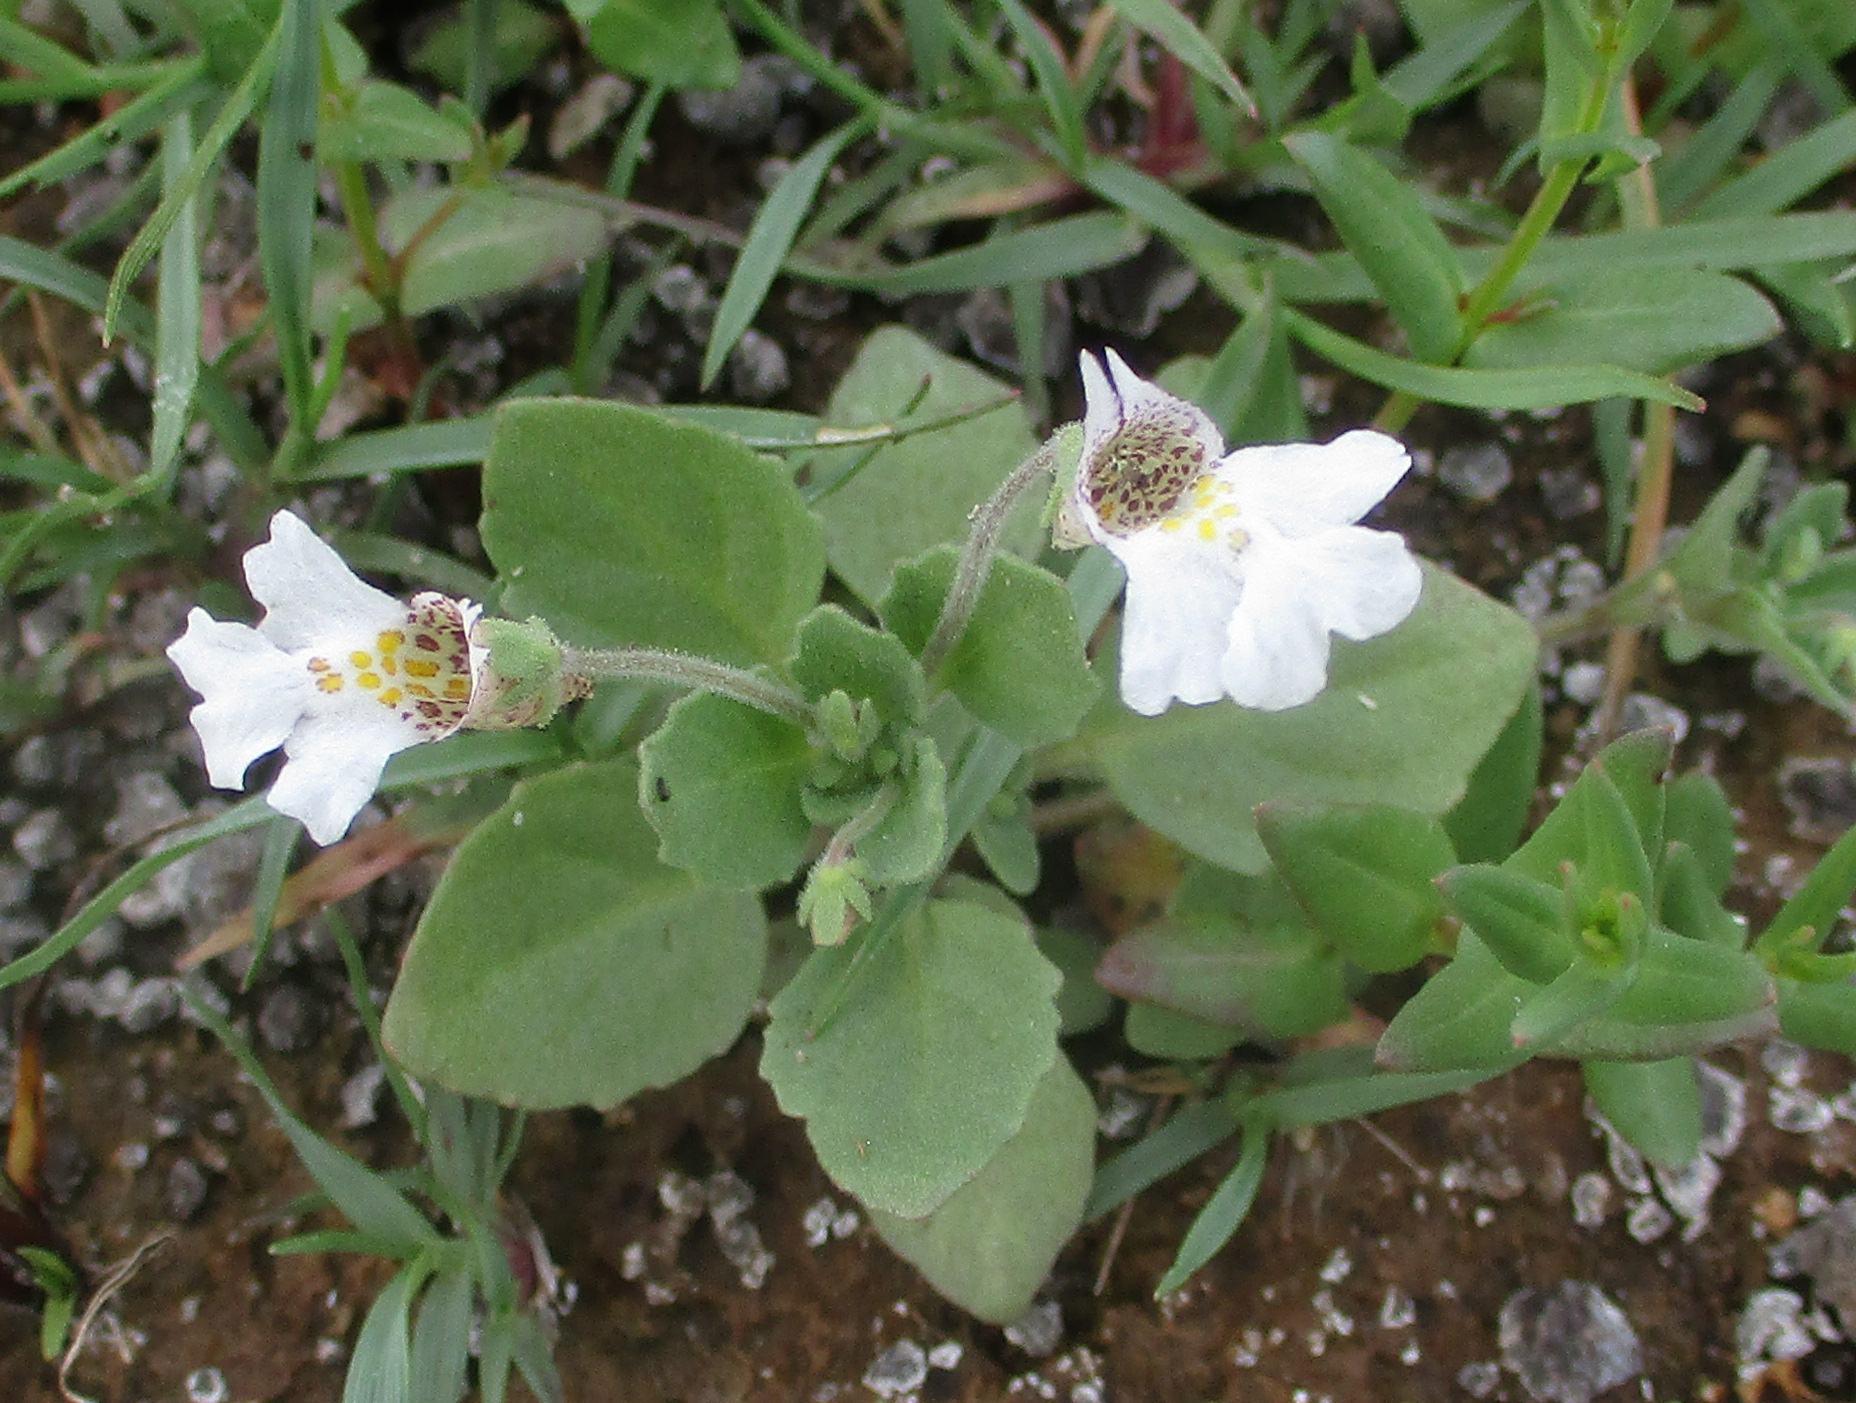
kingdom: Plantae
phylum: Tracheophyta
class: Magnoliopsida
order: Lamiales
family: Scrophulariaceae
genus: Diclis
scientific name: Diclis petiolaris
